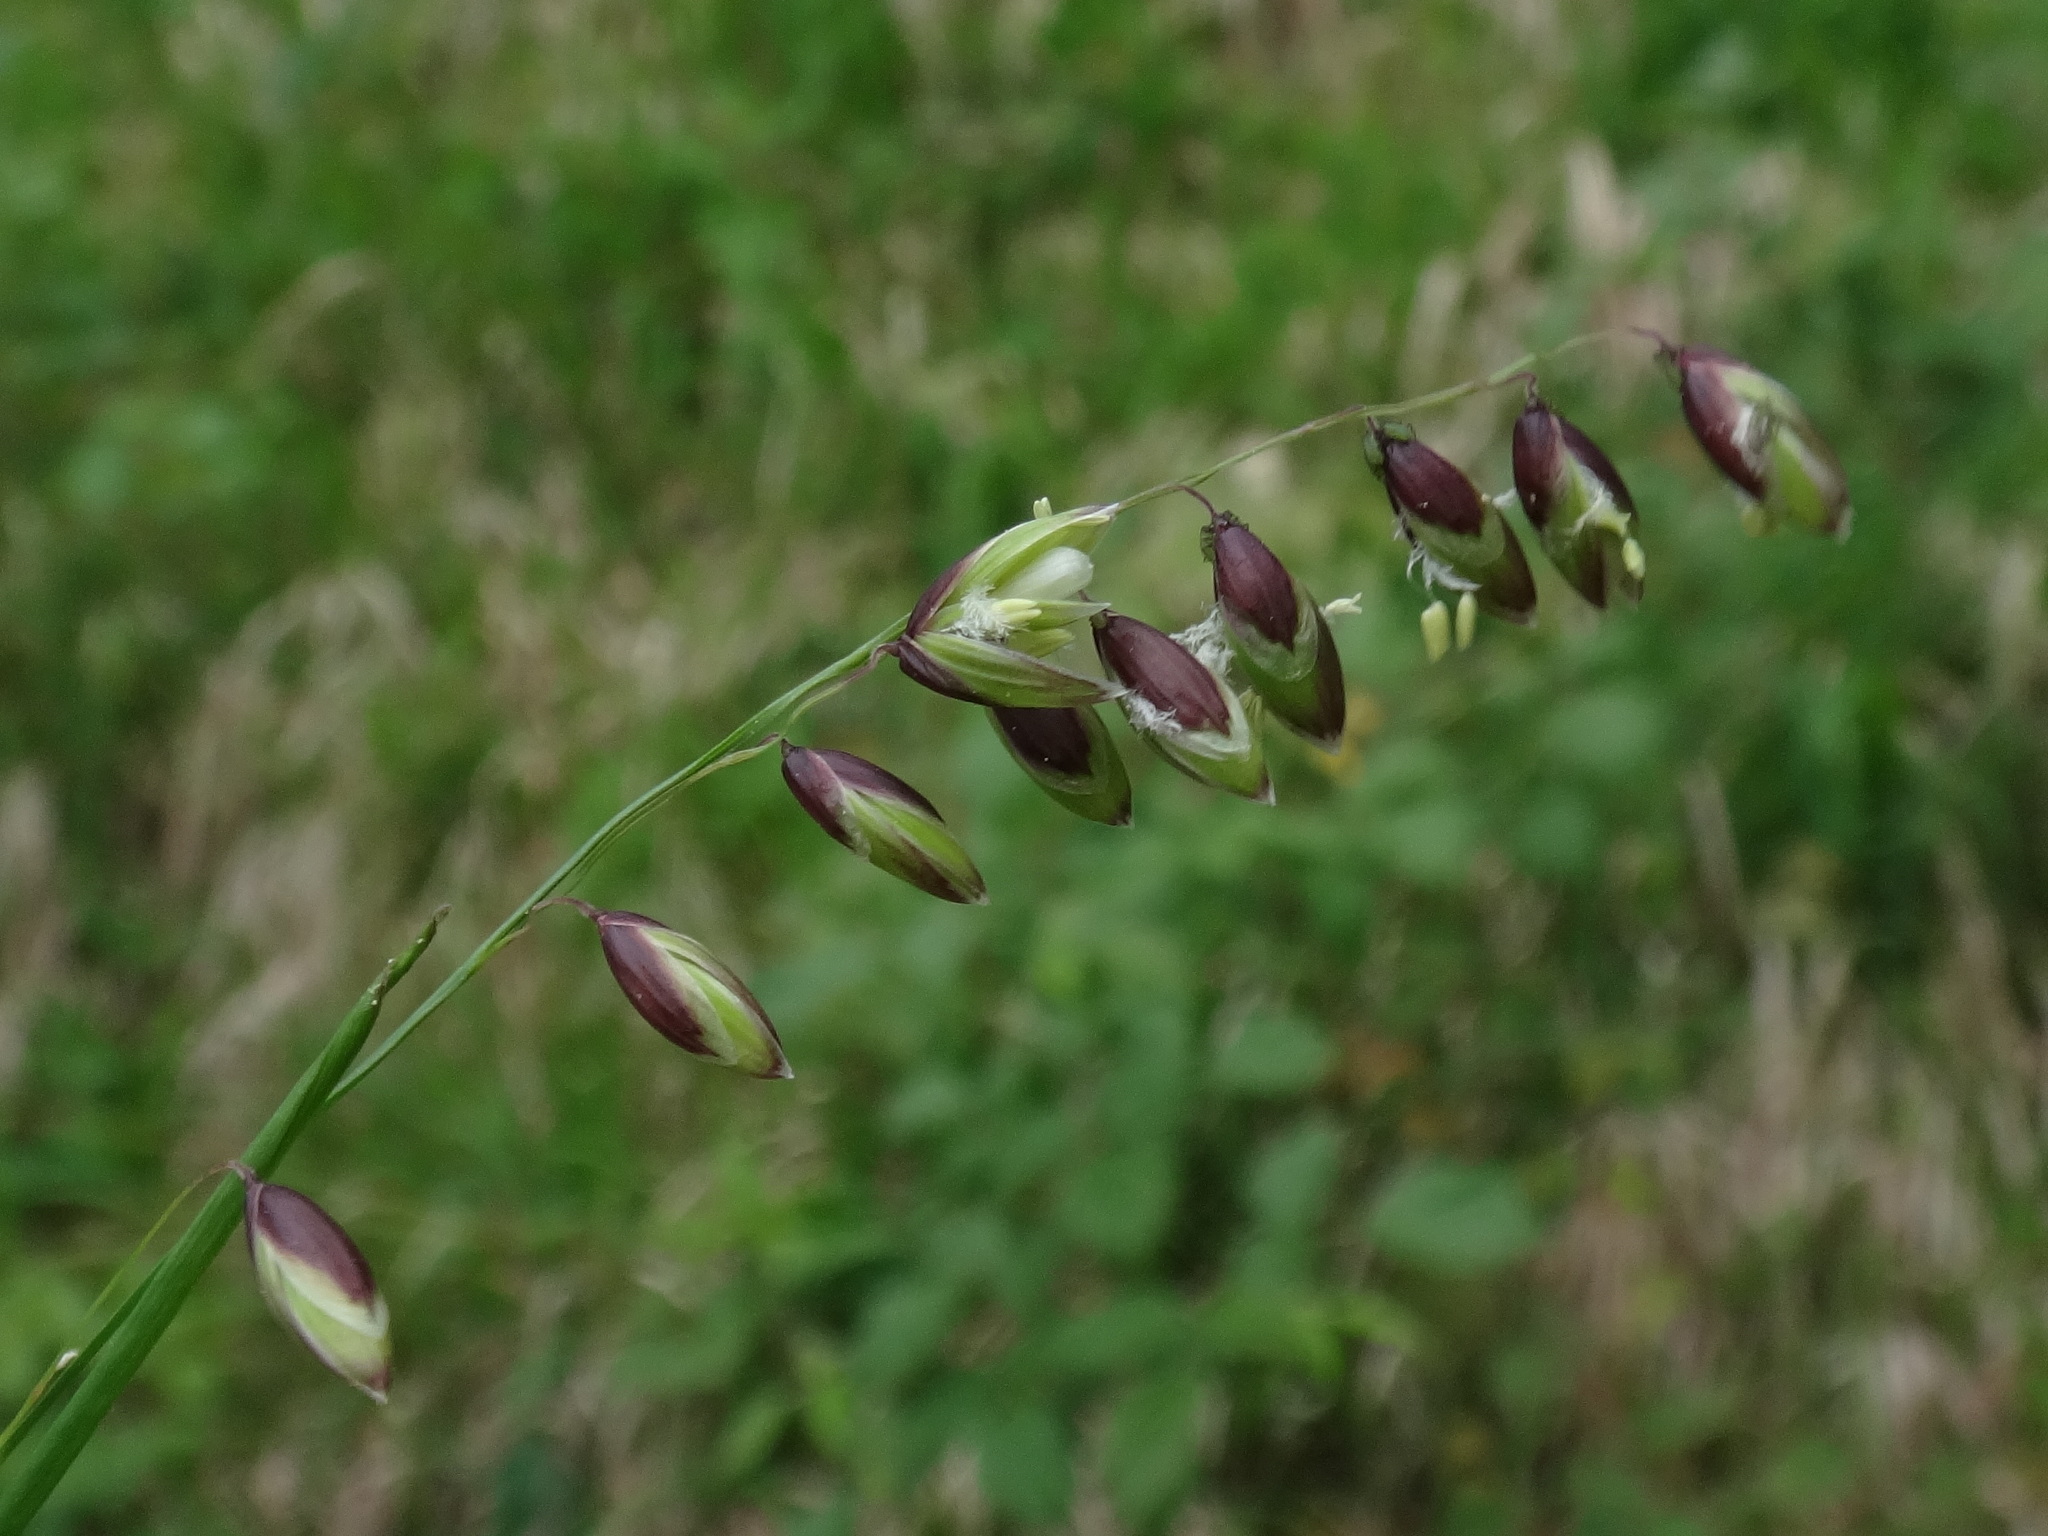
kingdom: Plantae
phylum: Tracheophyta
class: Liliopsida
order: Poales
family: Poaceae
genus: Melica
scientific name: Melica nutans
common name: Mountain melick
